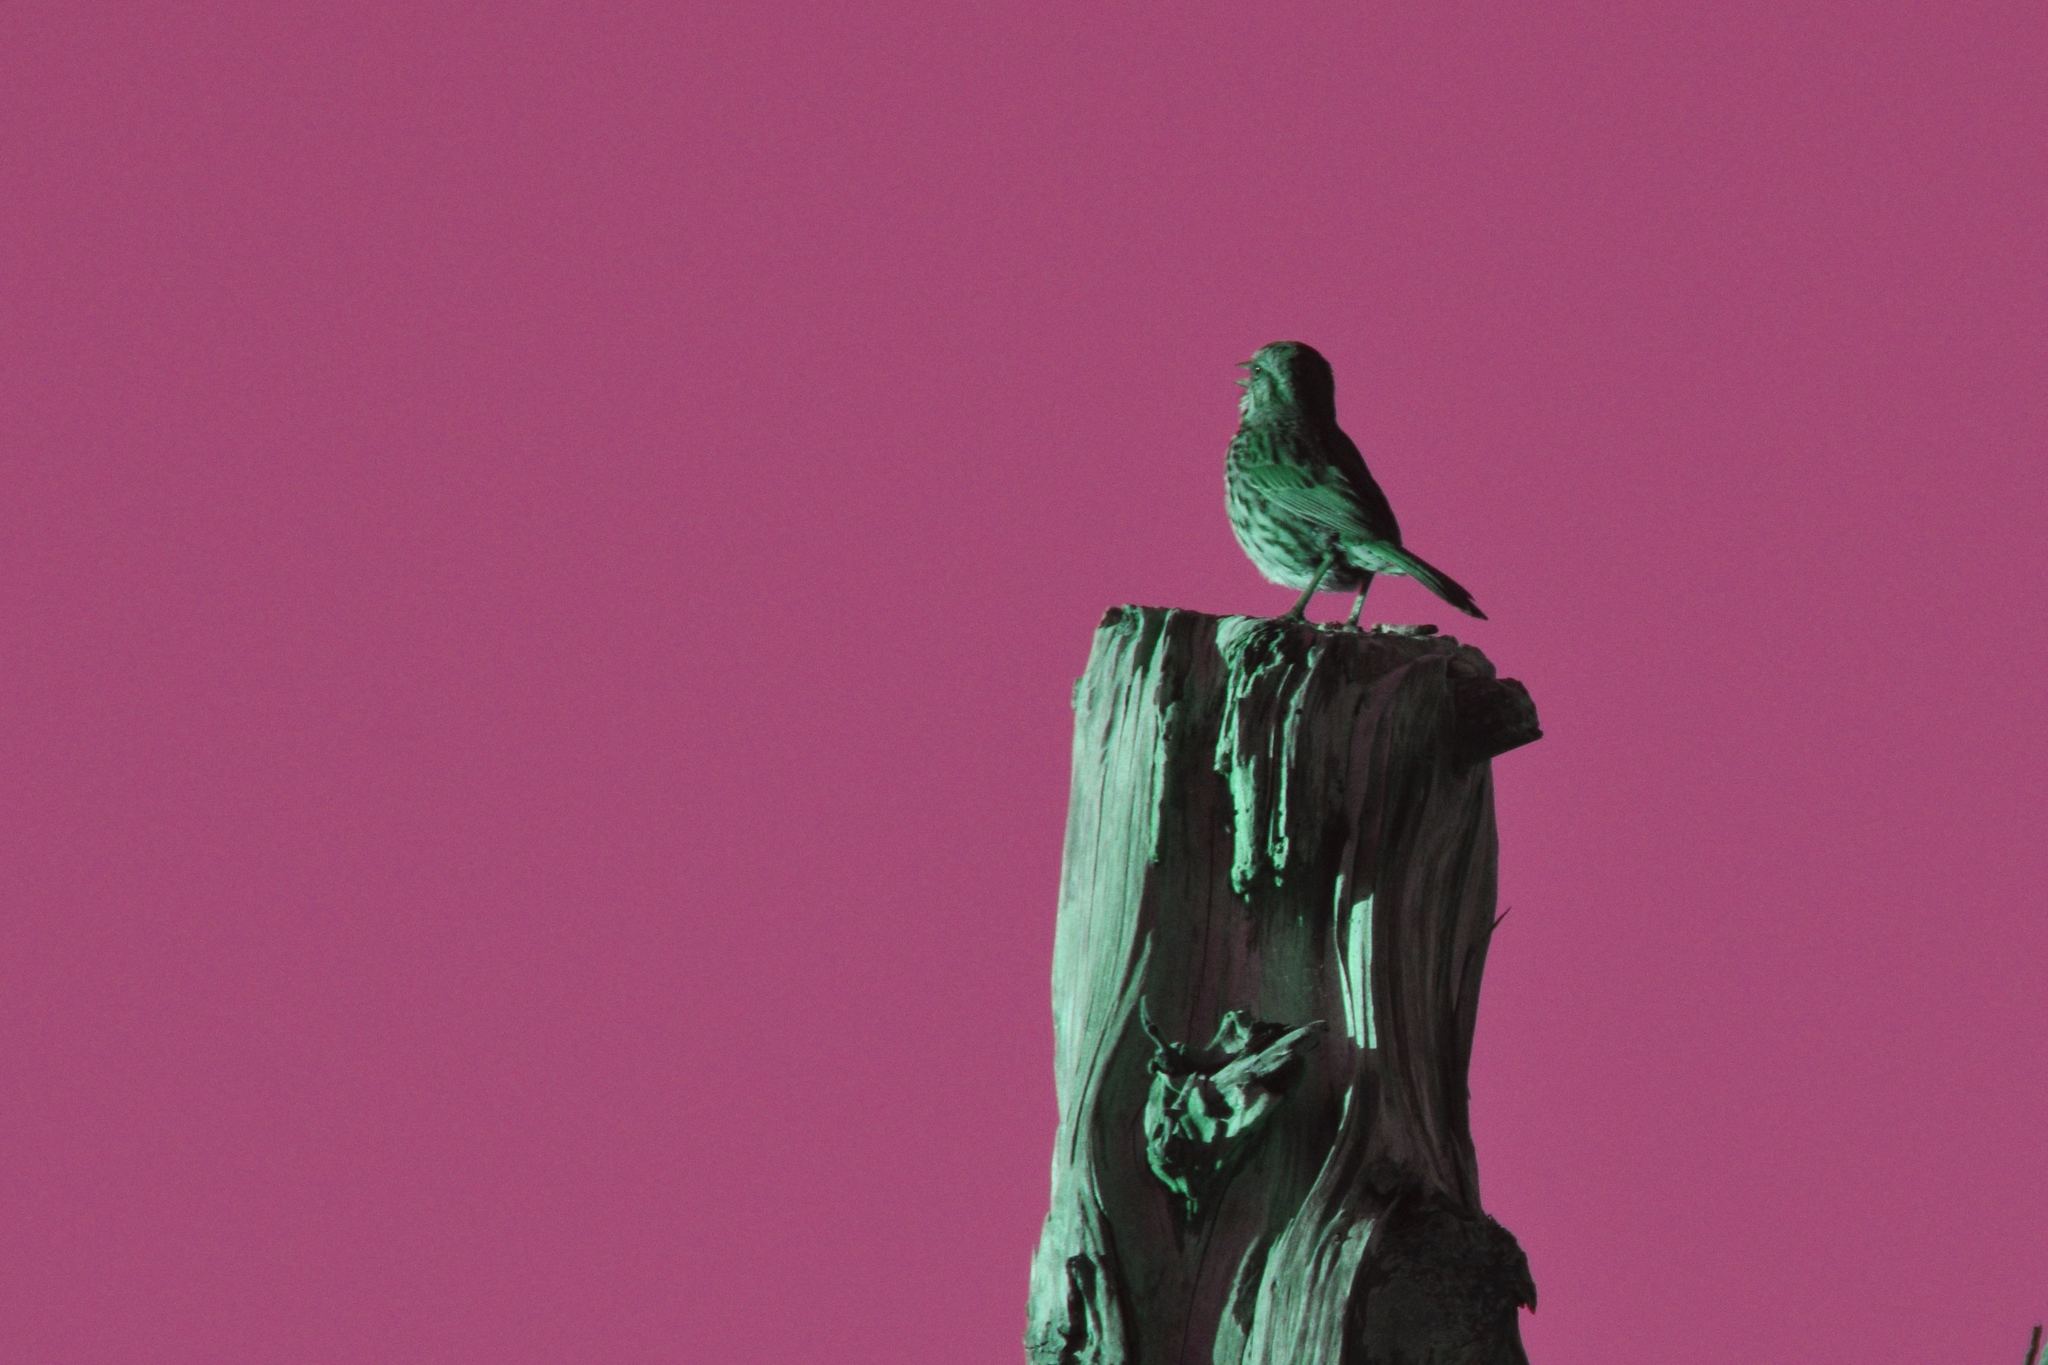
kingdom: Animalia
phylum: Chordata
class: Aves
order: Passeriformes
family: Passerellidae
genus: Melospiza
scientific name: Melospiza melodia
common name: Song sparrow
